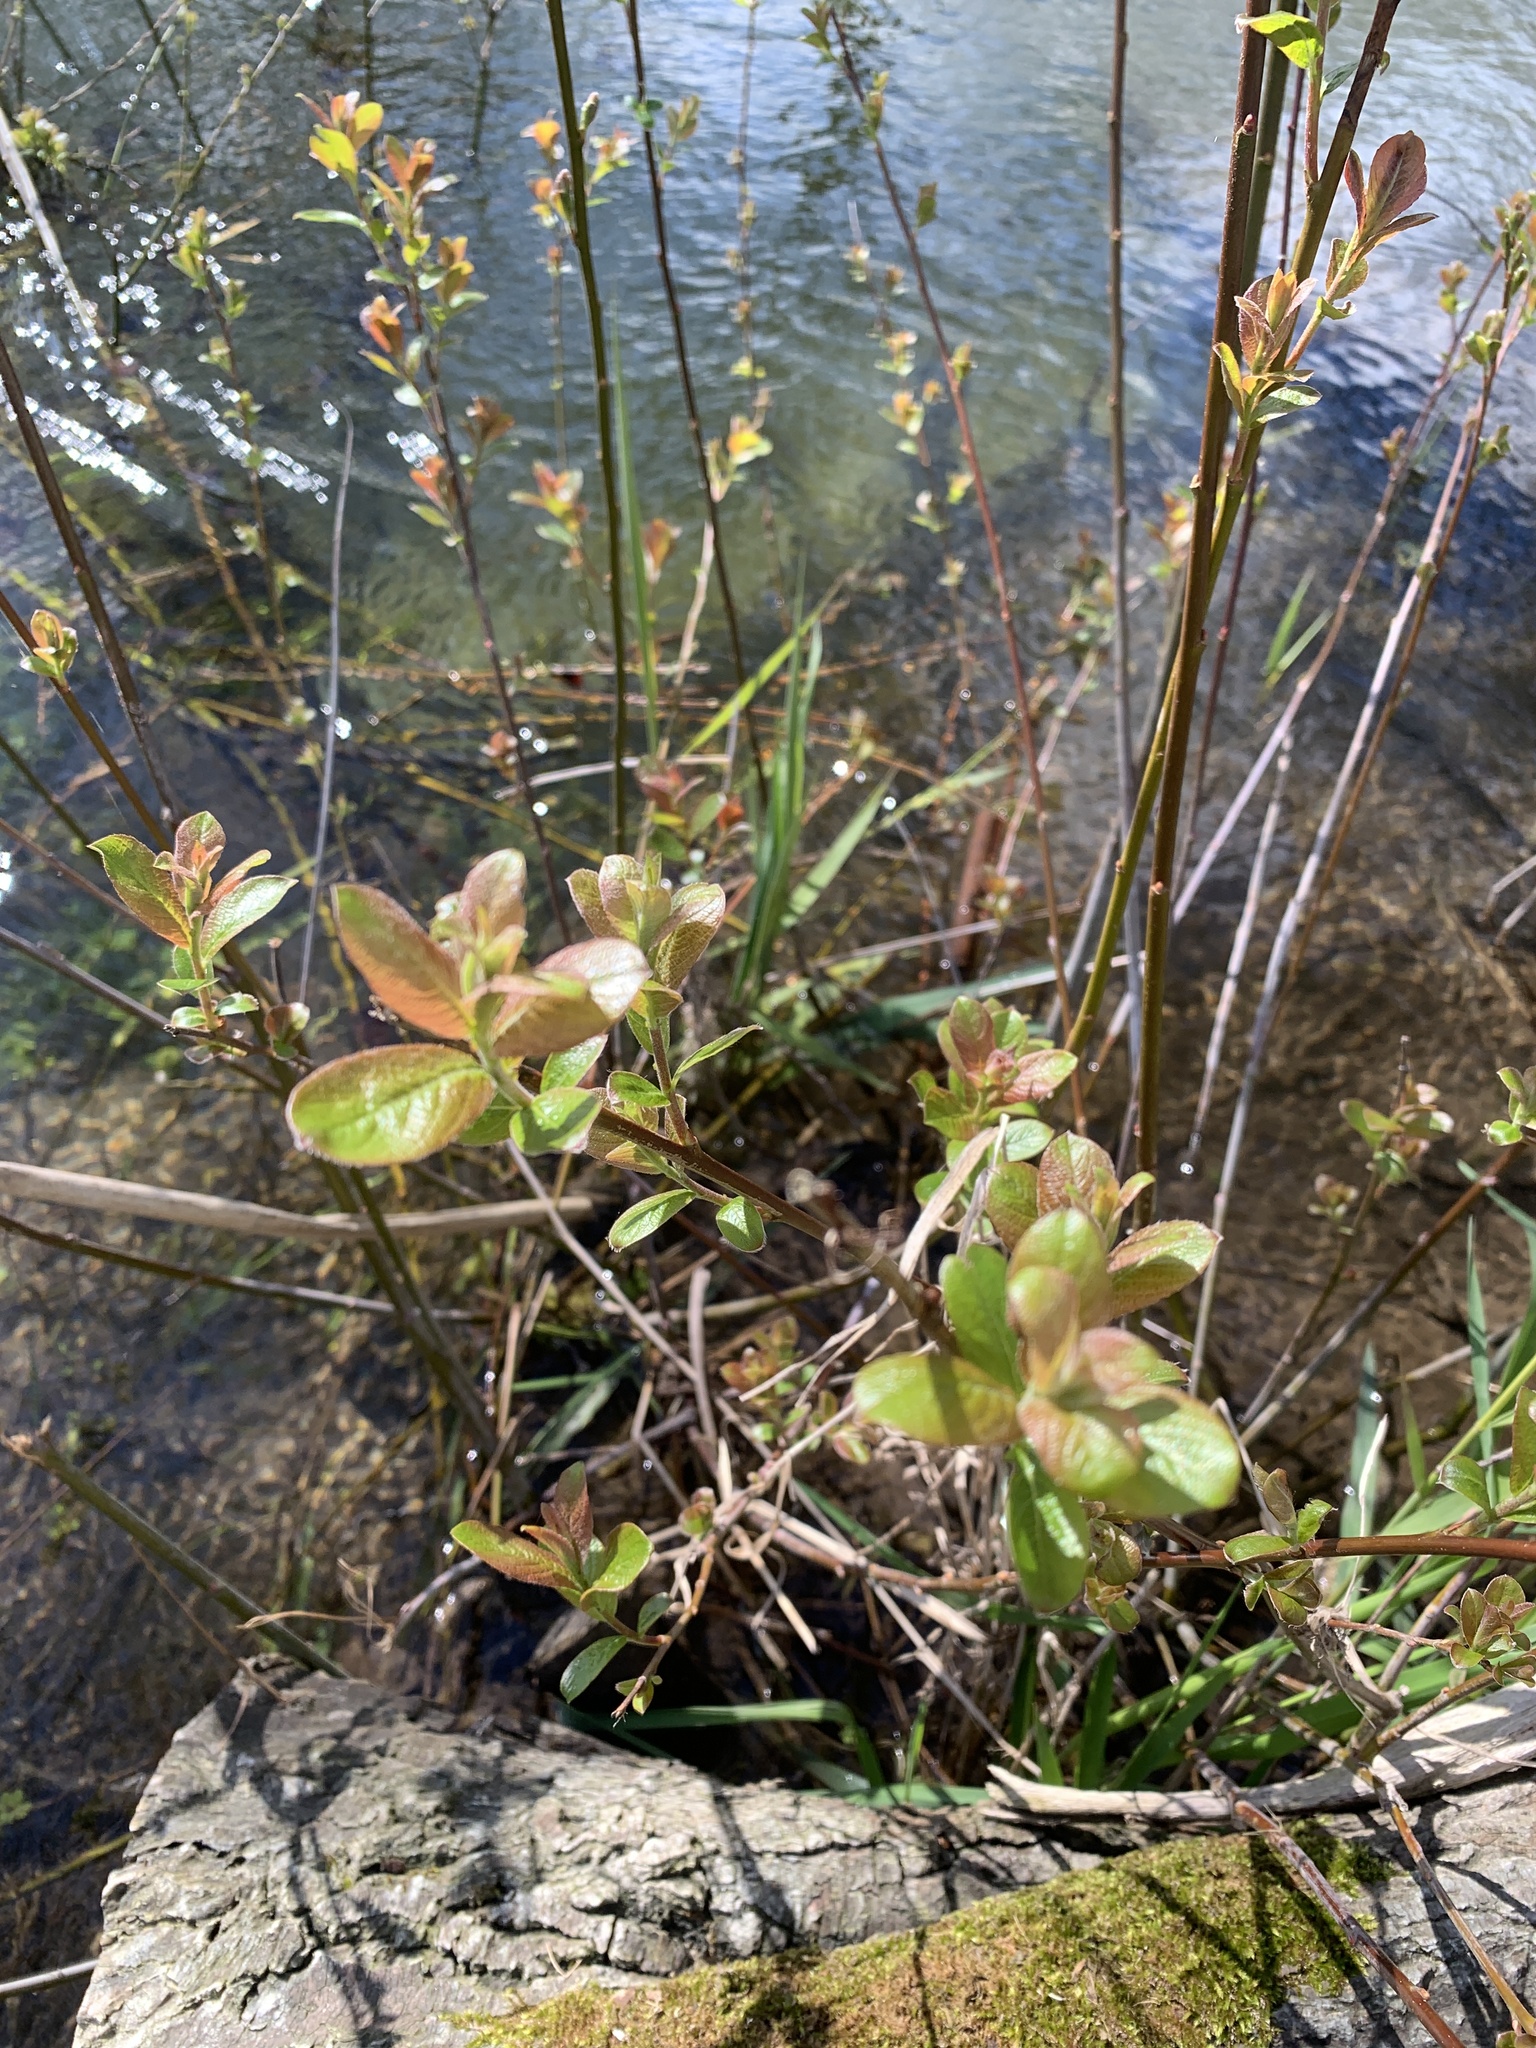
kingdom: Plantae
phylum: Tracheophyta
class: Magnoliopsida
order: Rosales
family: Rosaceae
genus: Rubus
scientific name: Rubus fruticosus
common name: Blackberry, bramble
